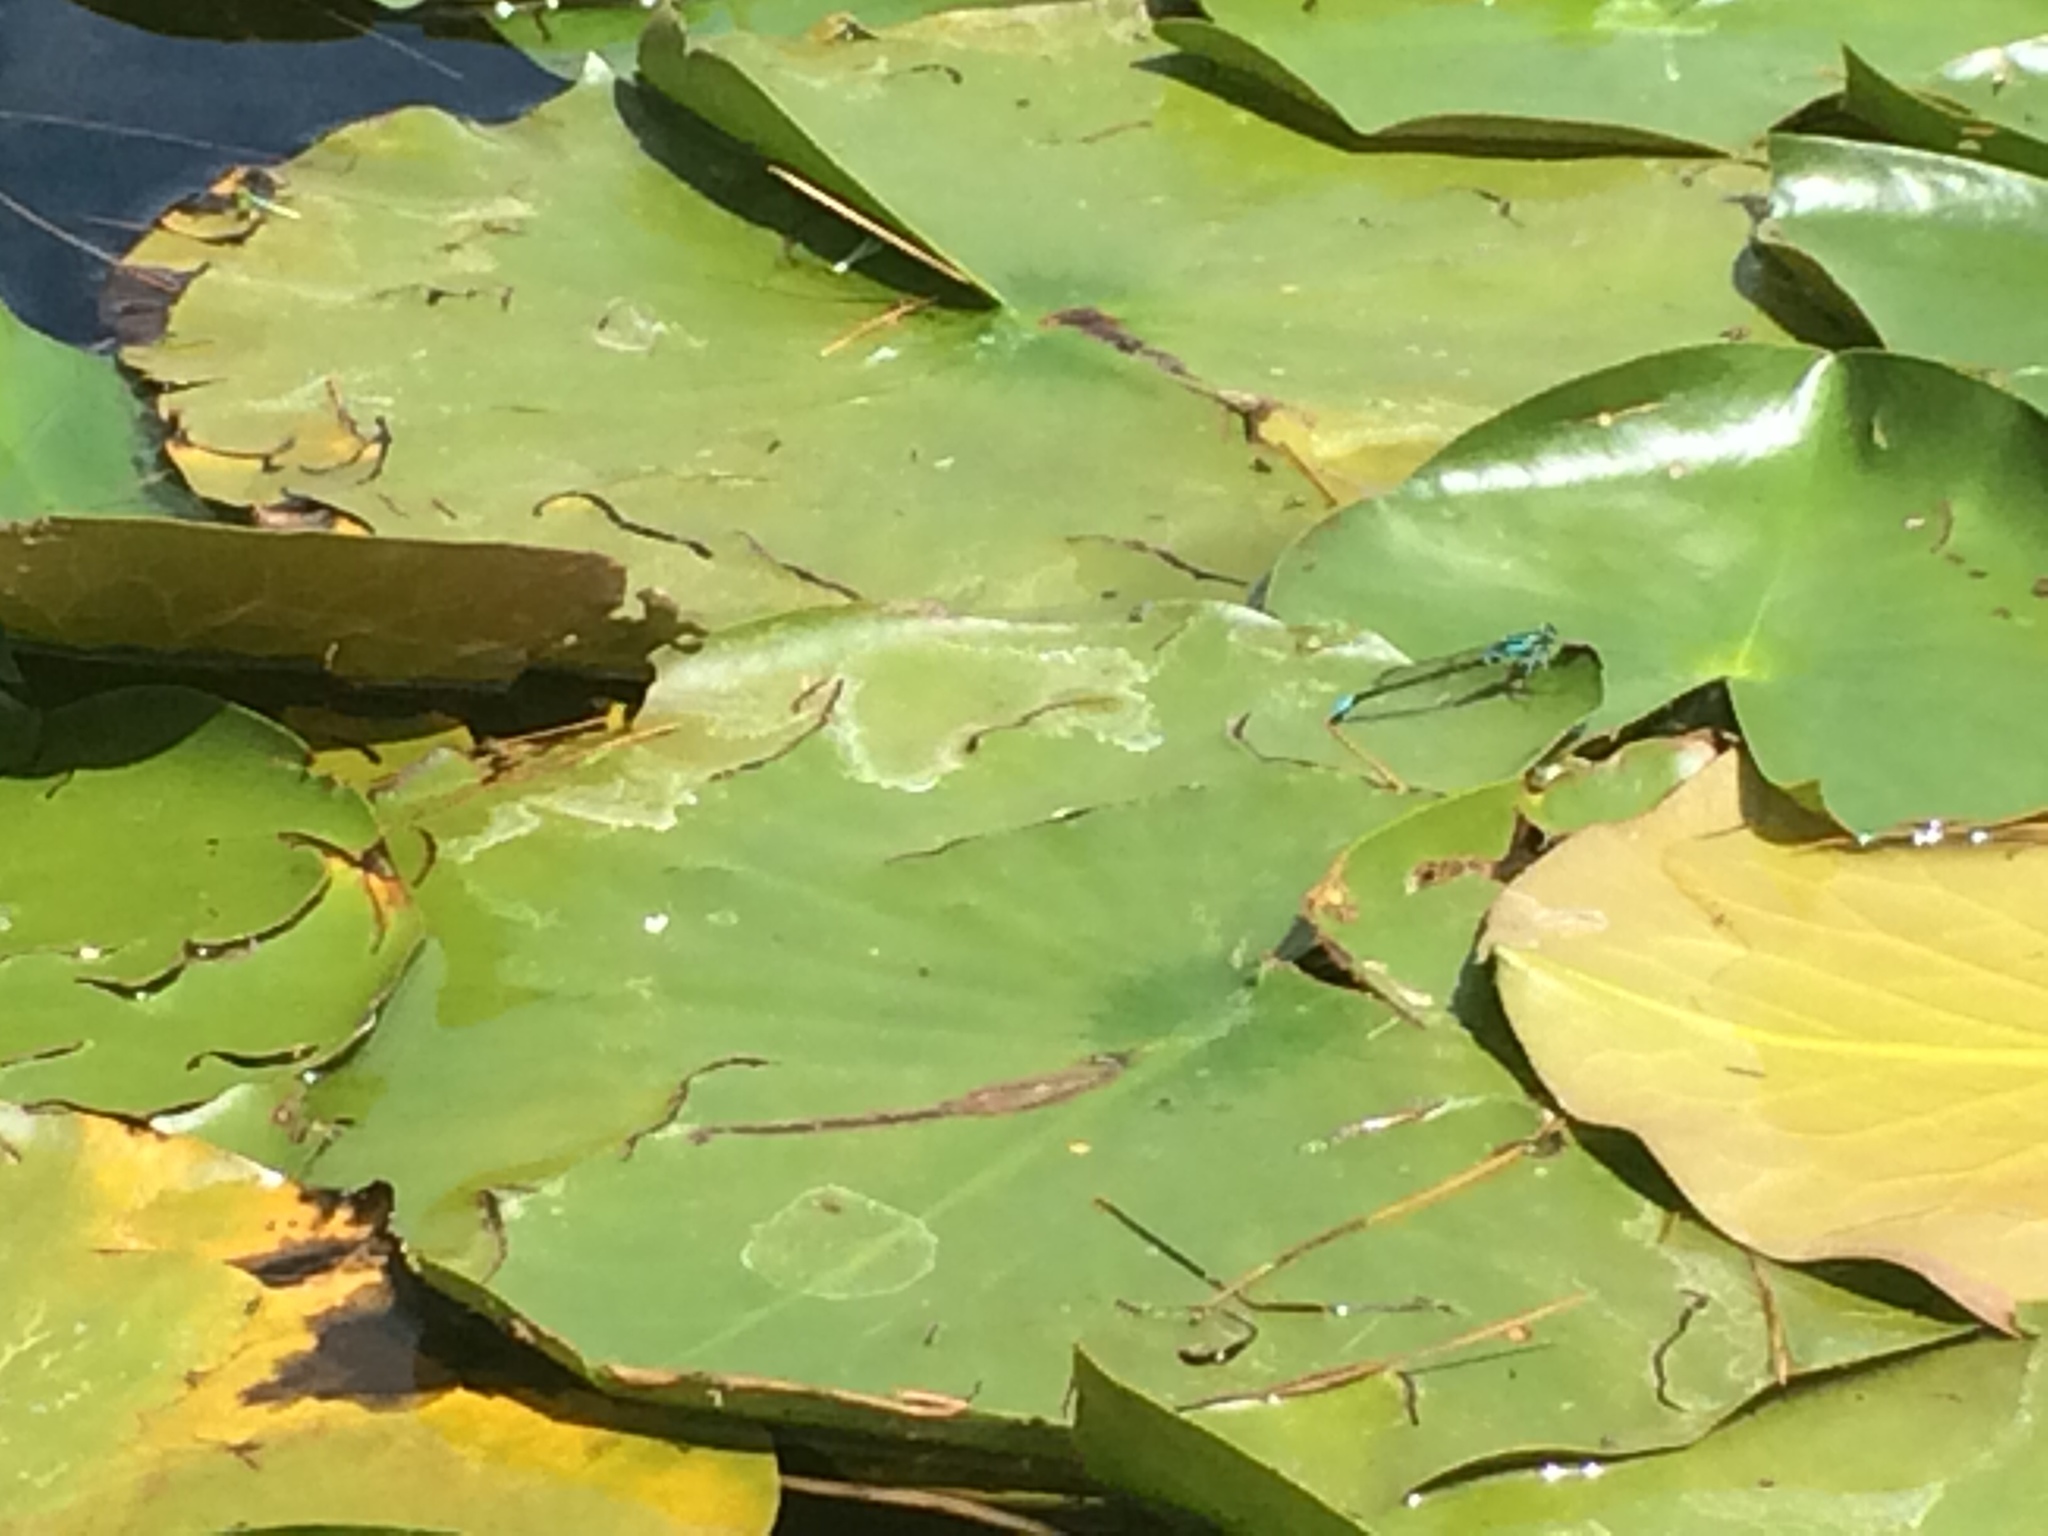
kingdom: Animalia
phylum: Arthropoda
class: Insecta
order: Odonata
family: Coenagrionidae
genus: Ischnura
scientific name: Ischnura kellicotti
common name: Lilypad forktail
